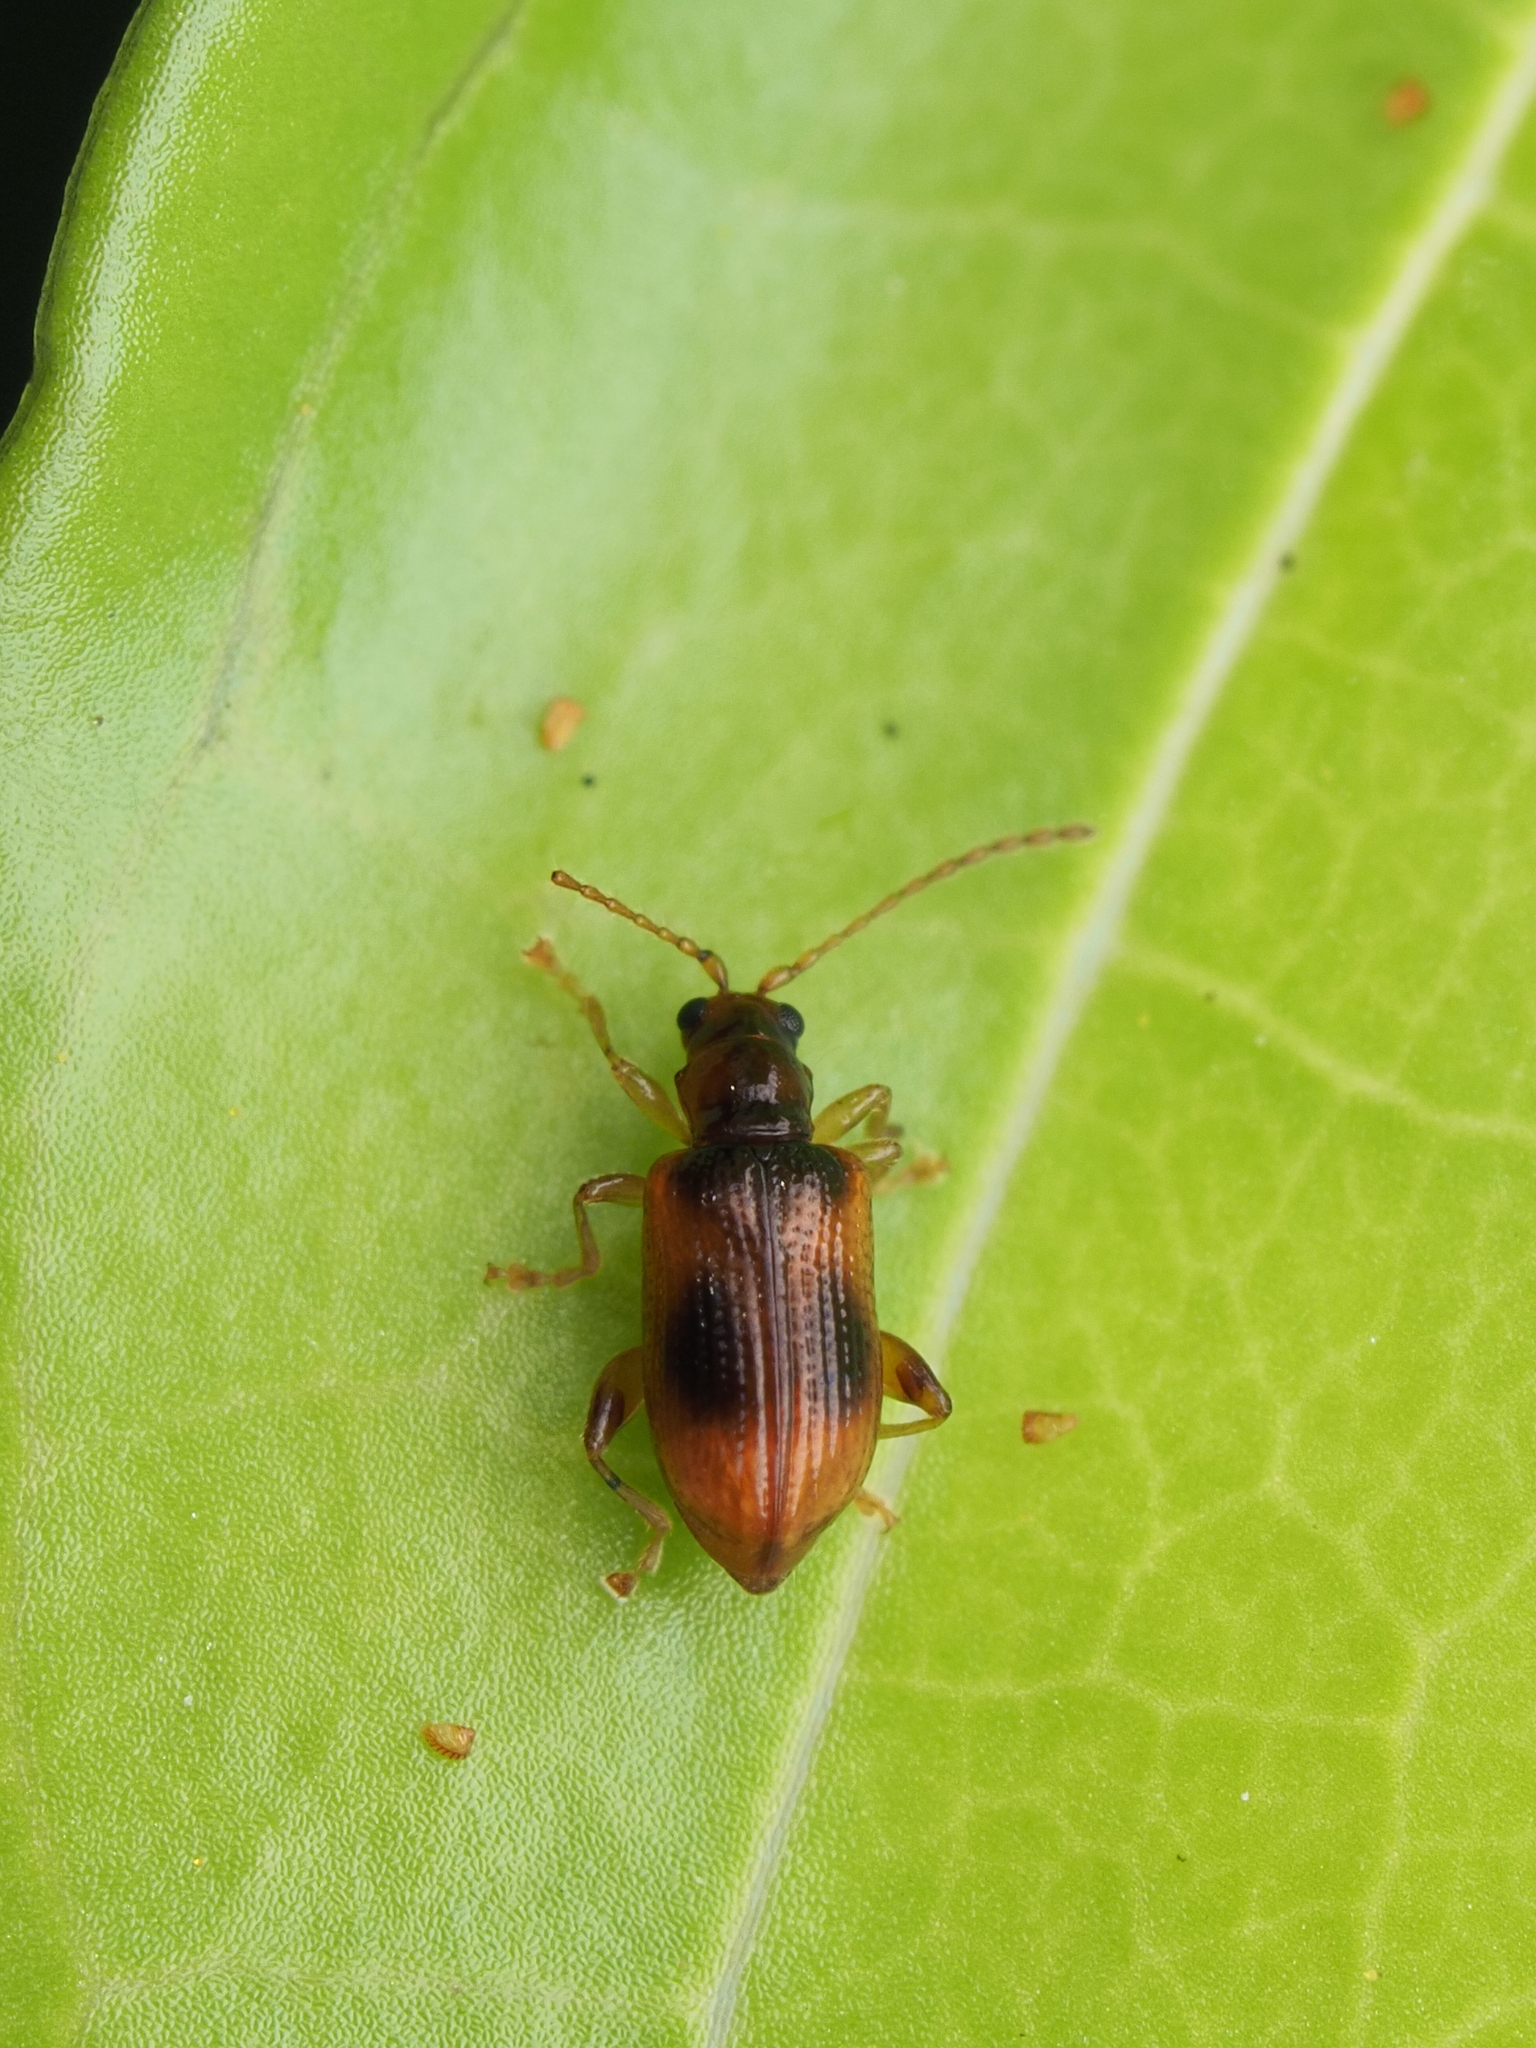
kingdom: Animalia
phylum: Arthropoda
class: Insecta
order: Coleoptera
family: Chrysomelidae
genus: Alema
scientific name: Alema paradoxa
